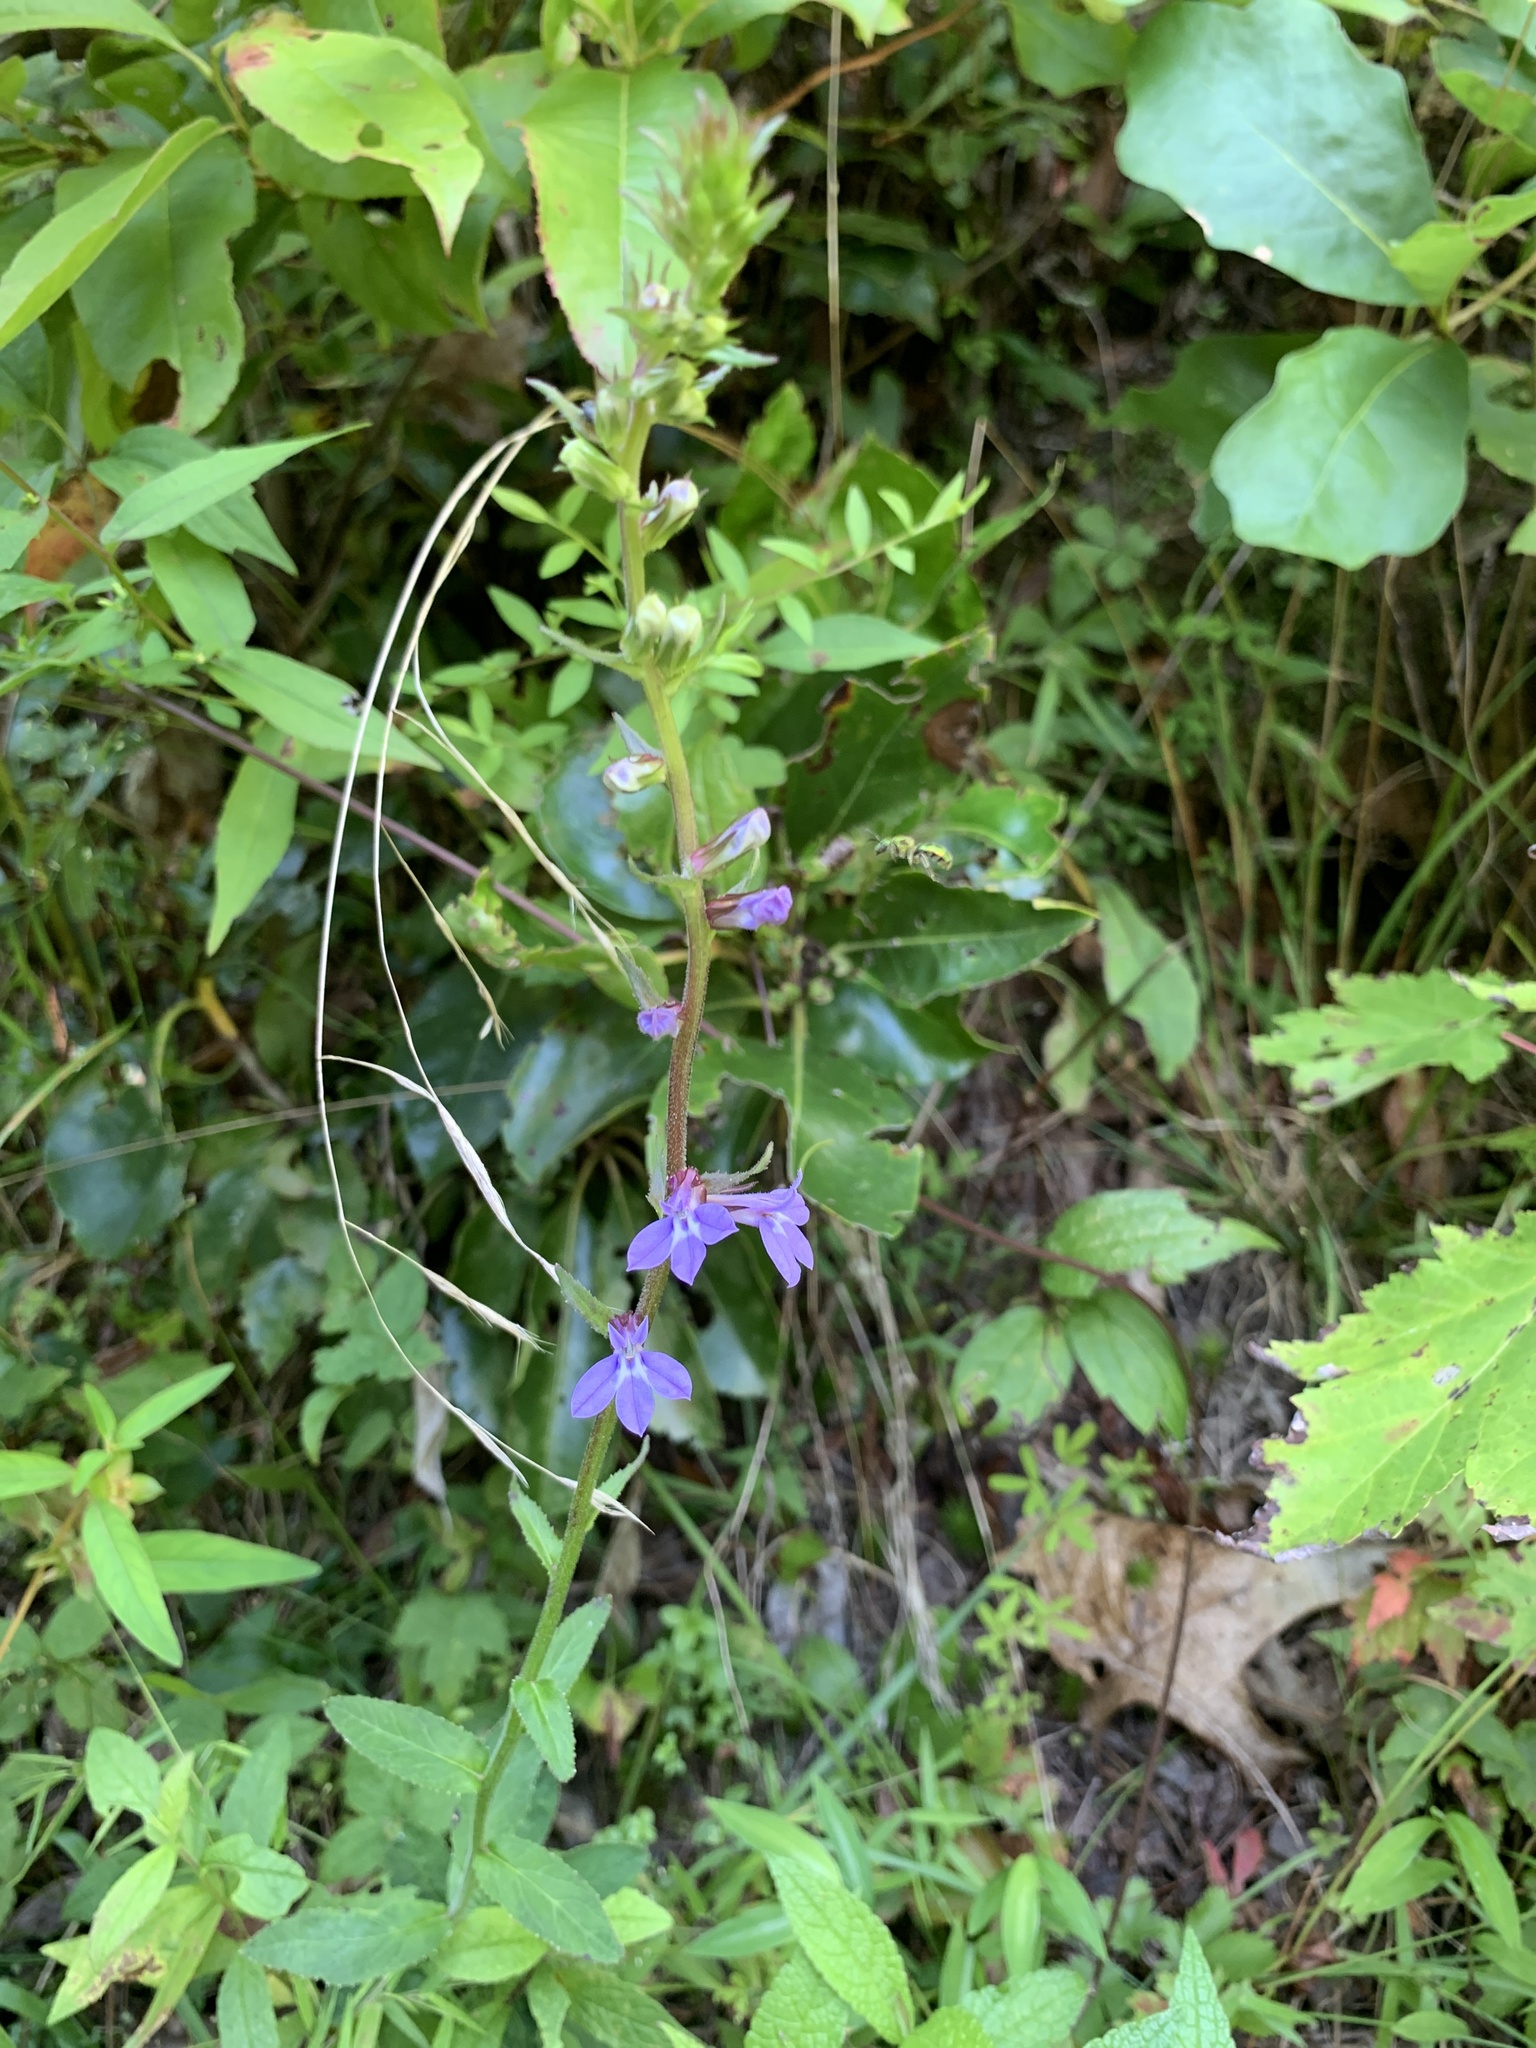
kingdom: Plantae
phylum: Tracheophyta
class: Magnoliopsida
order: Asterales
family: Campanulaceae
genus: Lobelia
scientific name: Lobelia puberula
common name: Purple dewdrop
